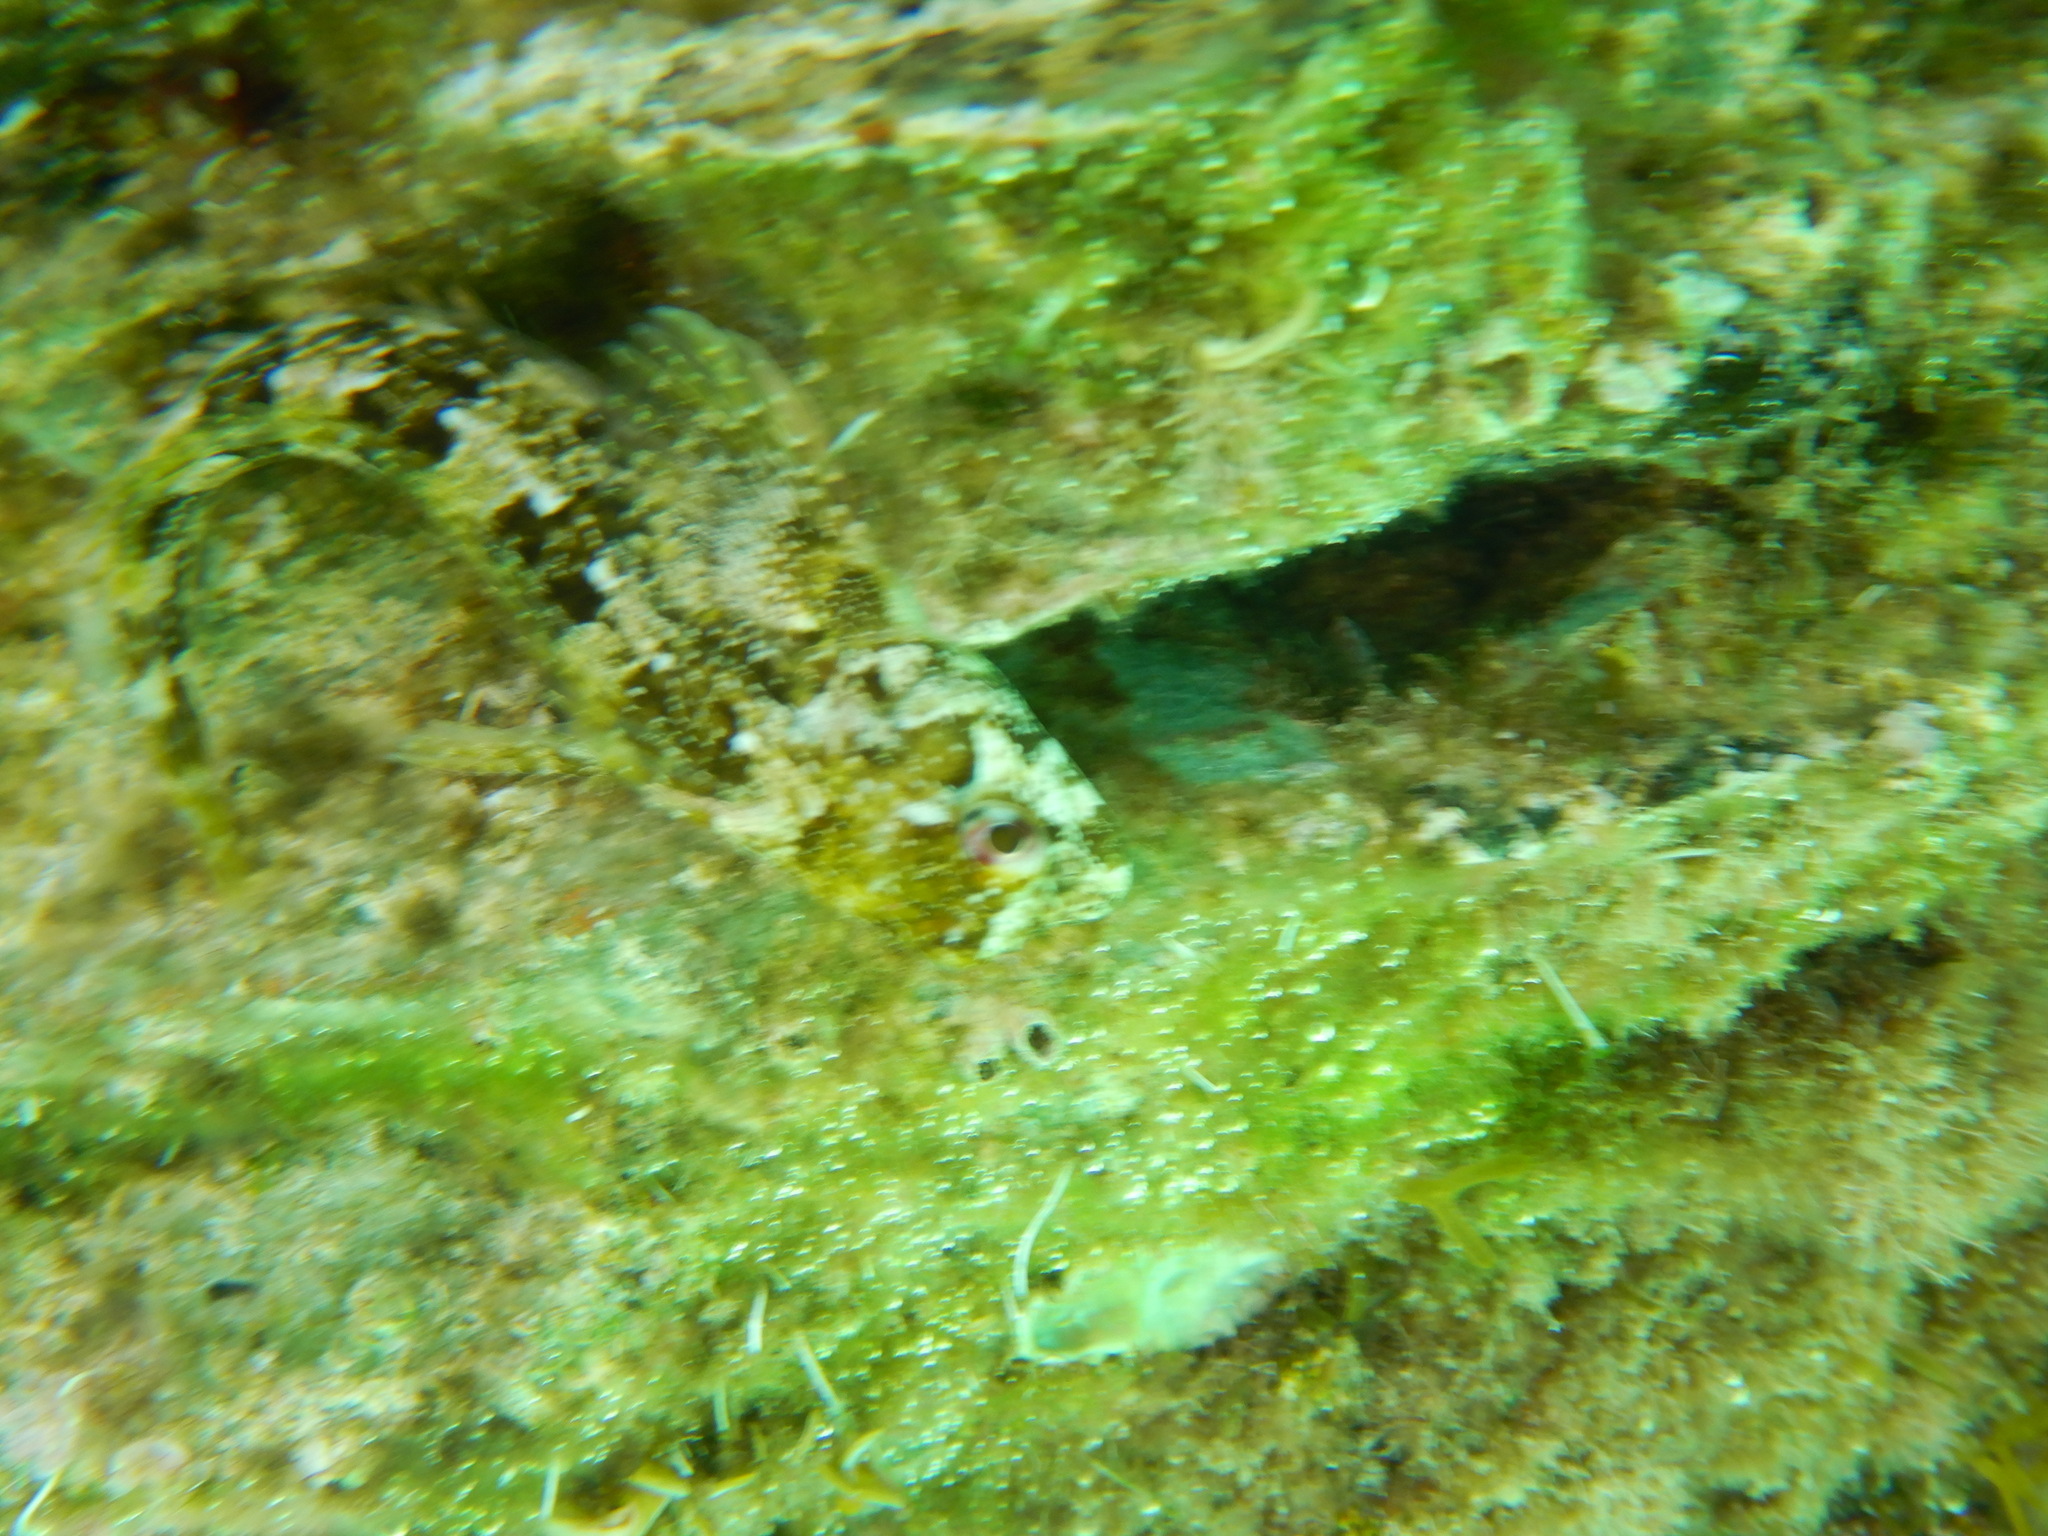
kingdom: Animalia
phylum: Chordata
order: Perciformes
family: Blenniidae
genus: Lipophrys
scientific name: Lipophrys trigloides
